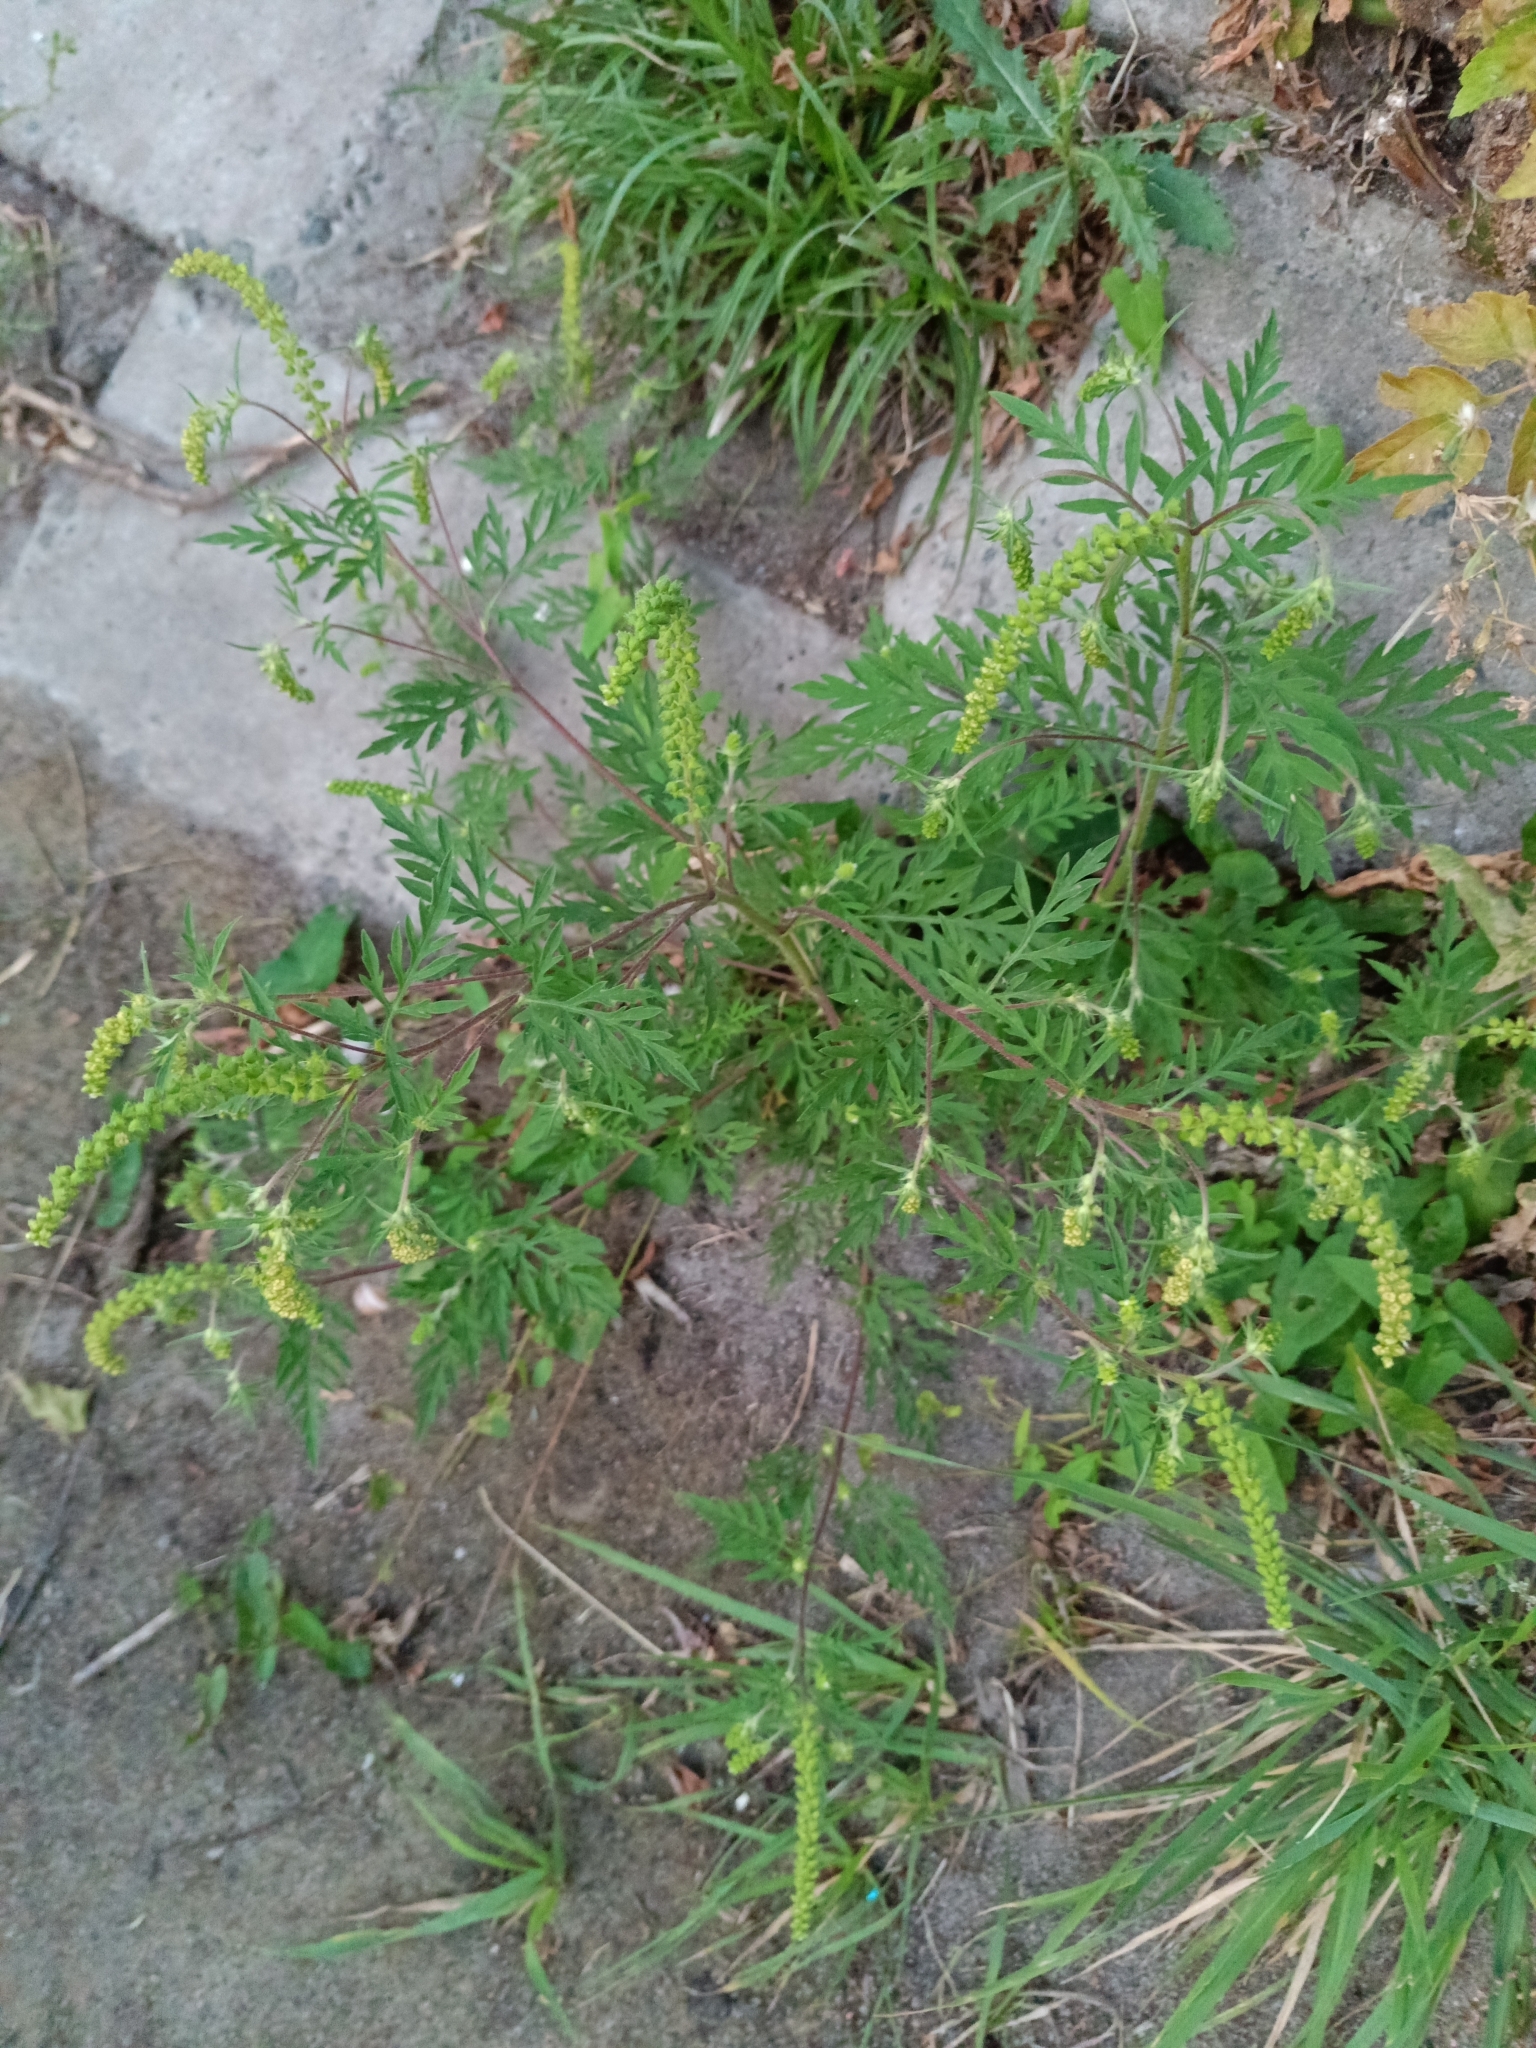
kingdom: Plantae
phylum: Tracheophyta
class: Magnoliopsida
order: Asterales
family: Asteraceae
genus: Ambrosia
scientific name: Ambrosia artemisiifolia
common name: Annual ragweed
